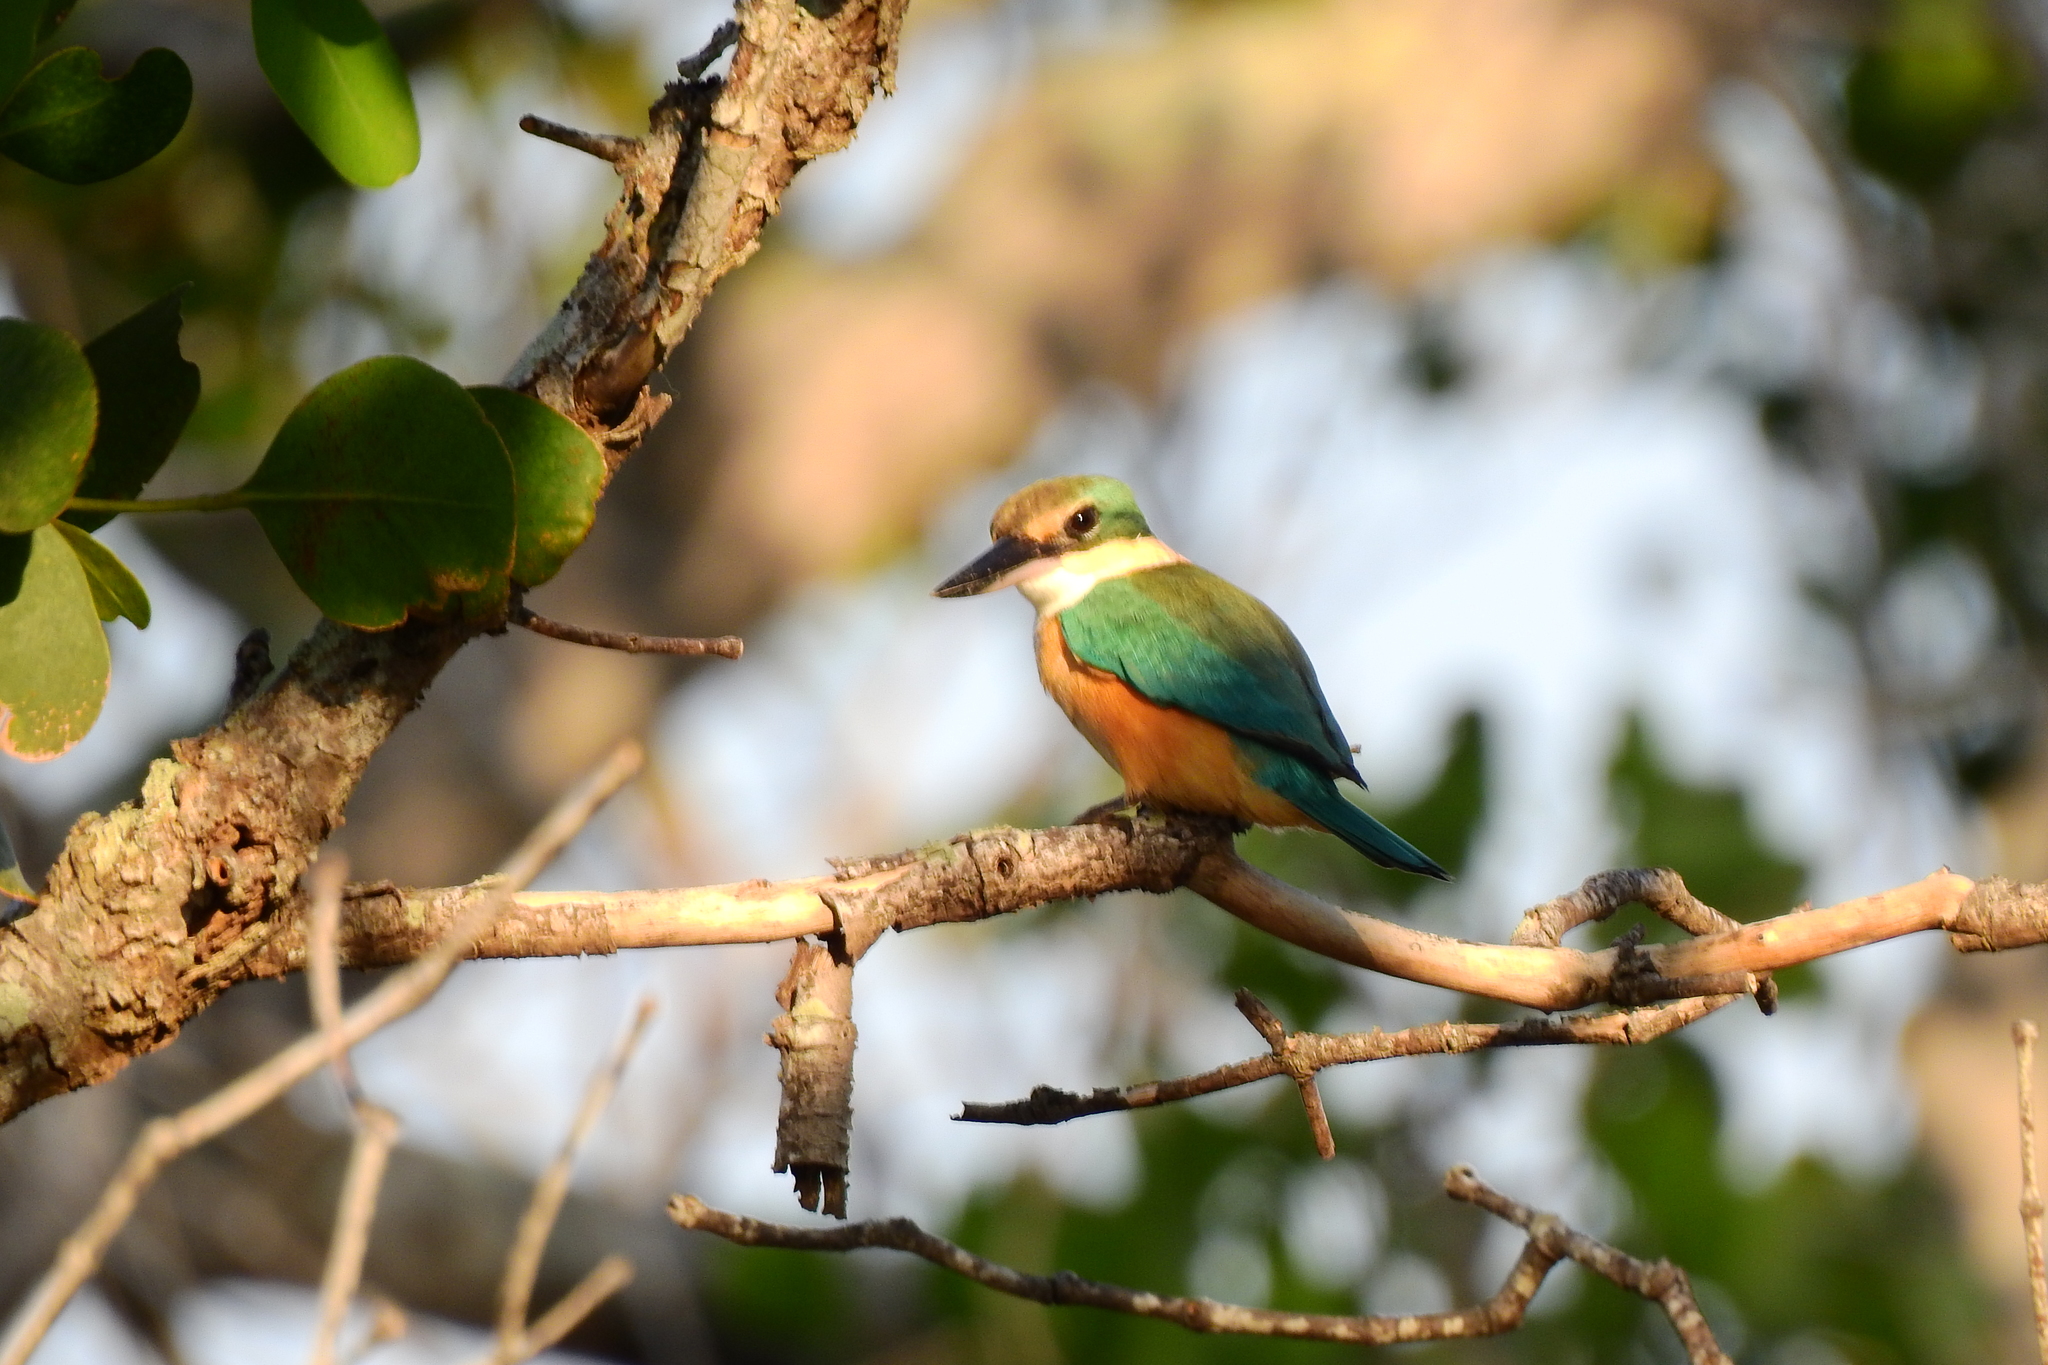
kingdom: Animalia
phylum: Chordata
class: Aves
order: Coraciiformes
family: Alcedinidae
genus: Todiramphus
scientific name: Todiramphus sanctus
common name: Sacred kingfisher
